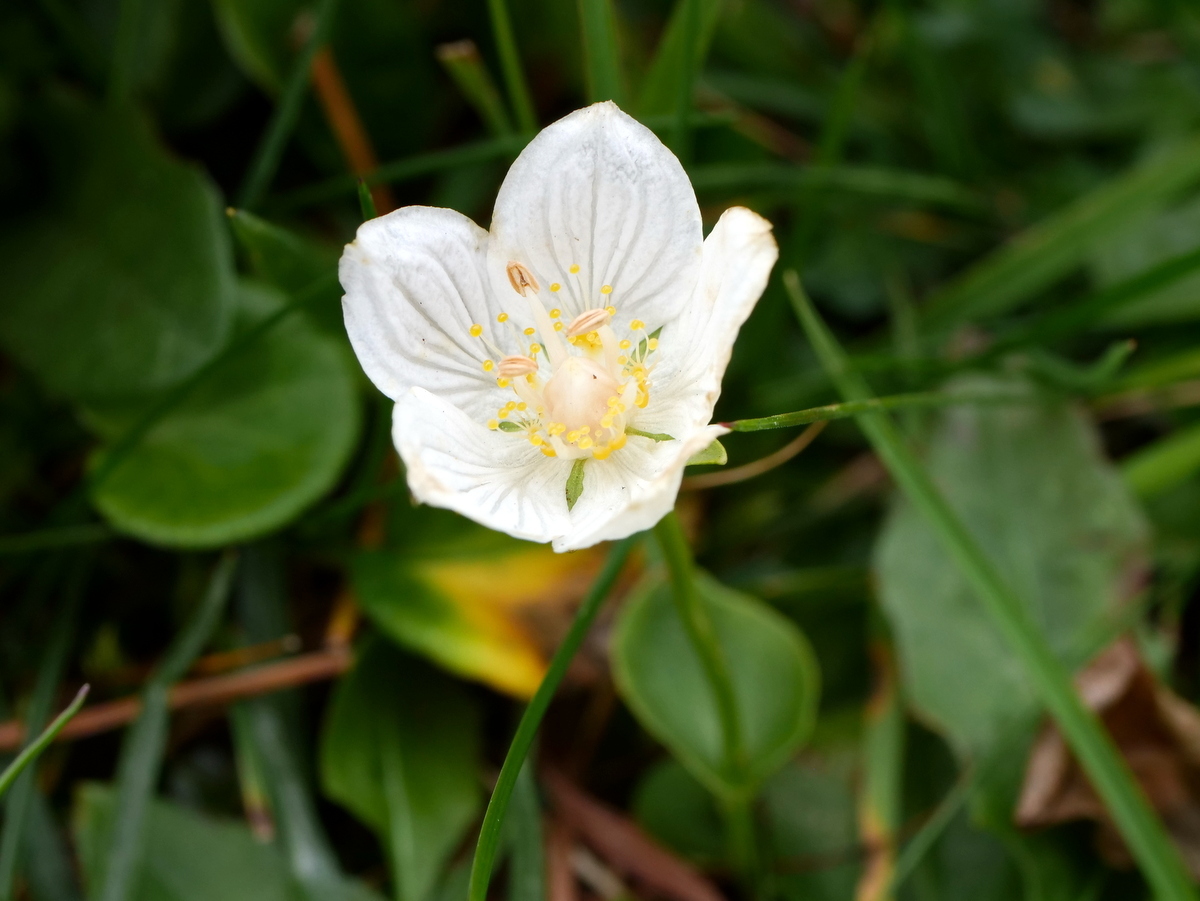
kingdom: Plantae
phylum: Tracheophyta
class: Magnoliopsida
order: Celastrales
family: Parnassiaceae
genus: Parnassia
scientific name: Parnassia palustris
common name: Grass-of-parnassus
